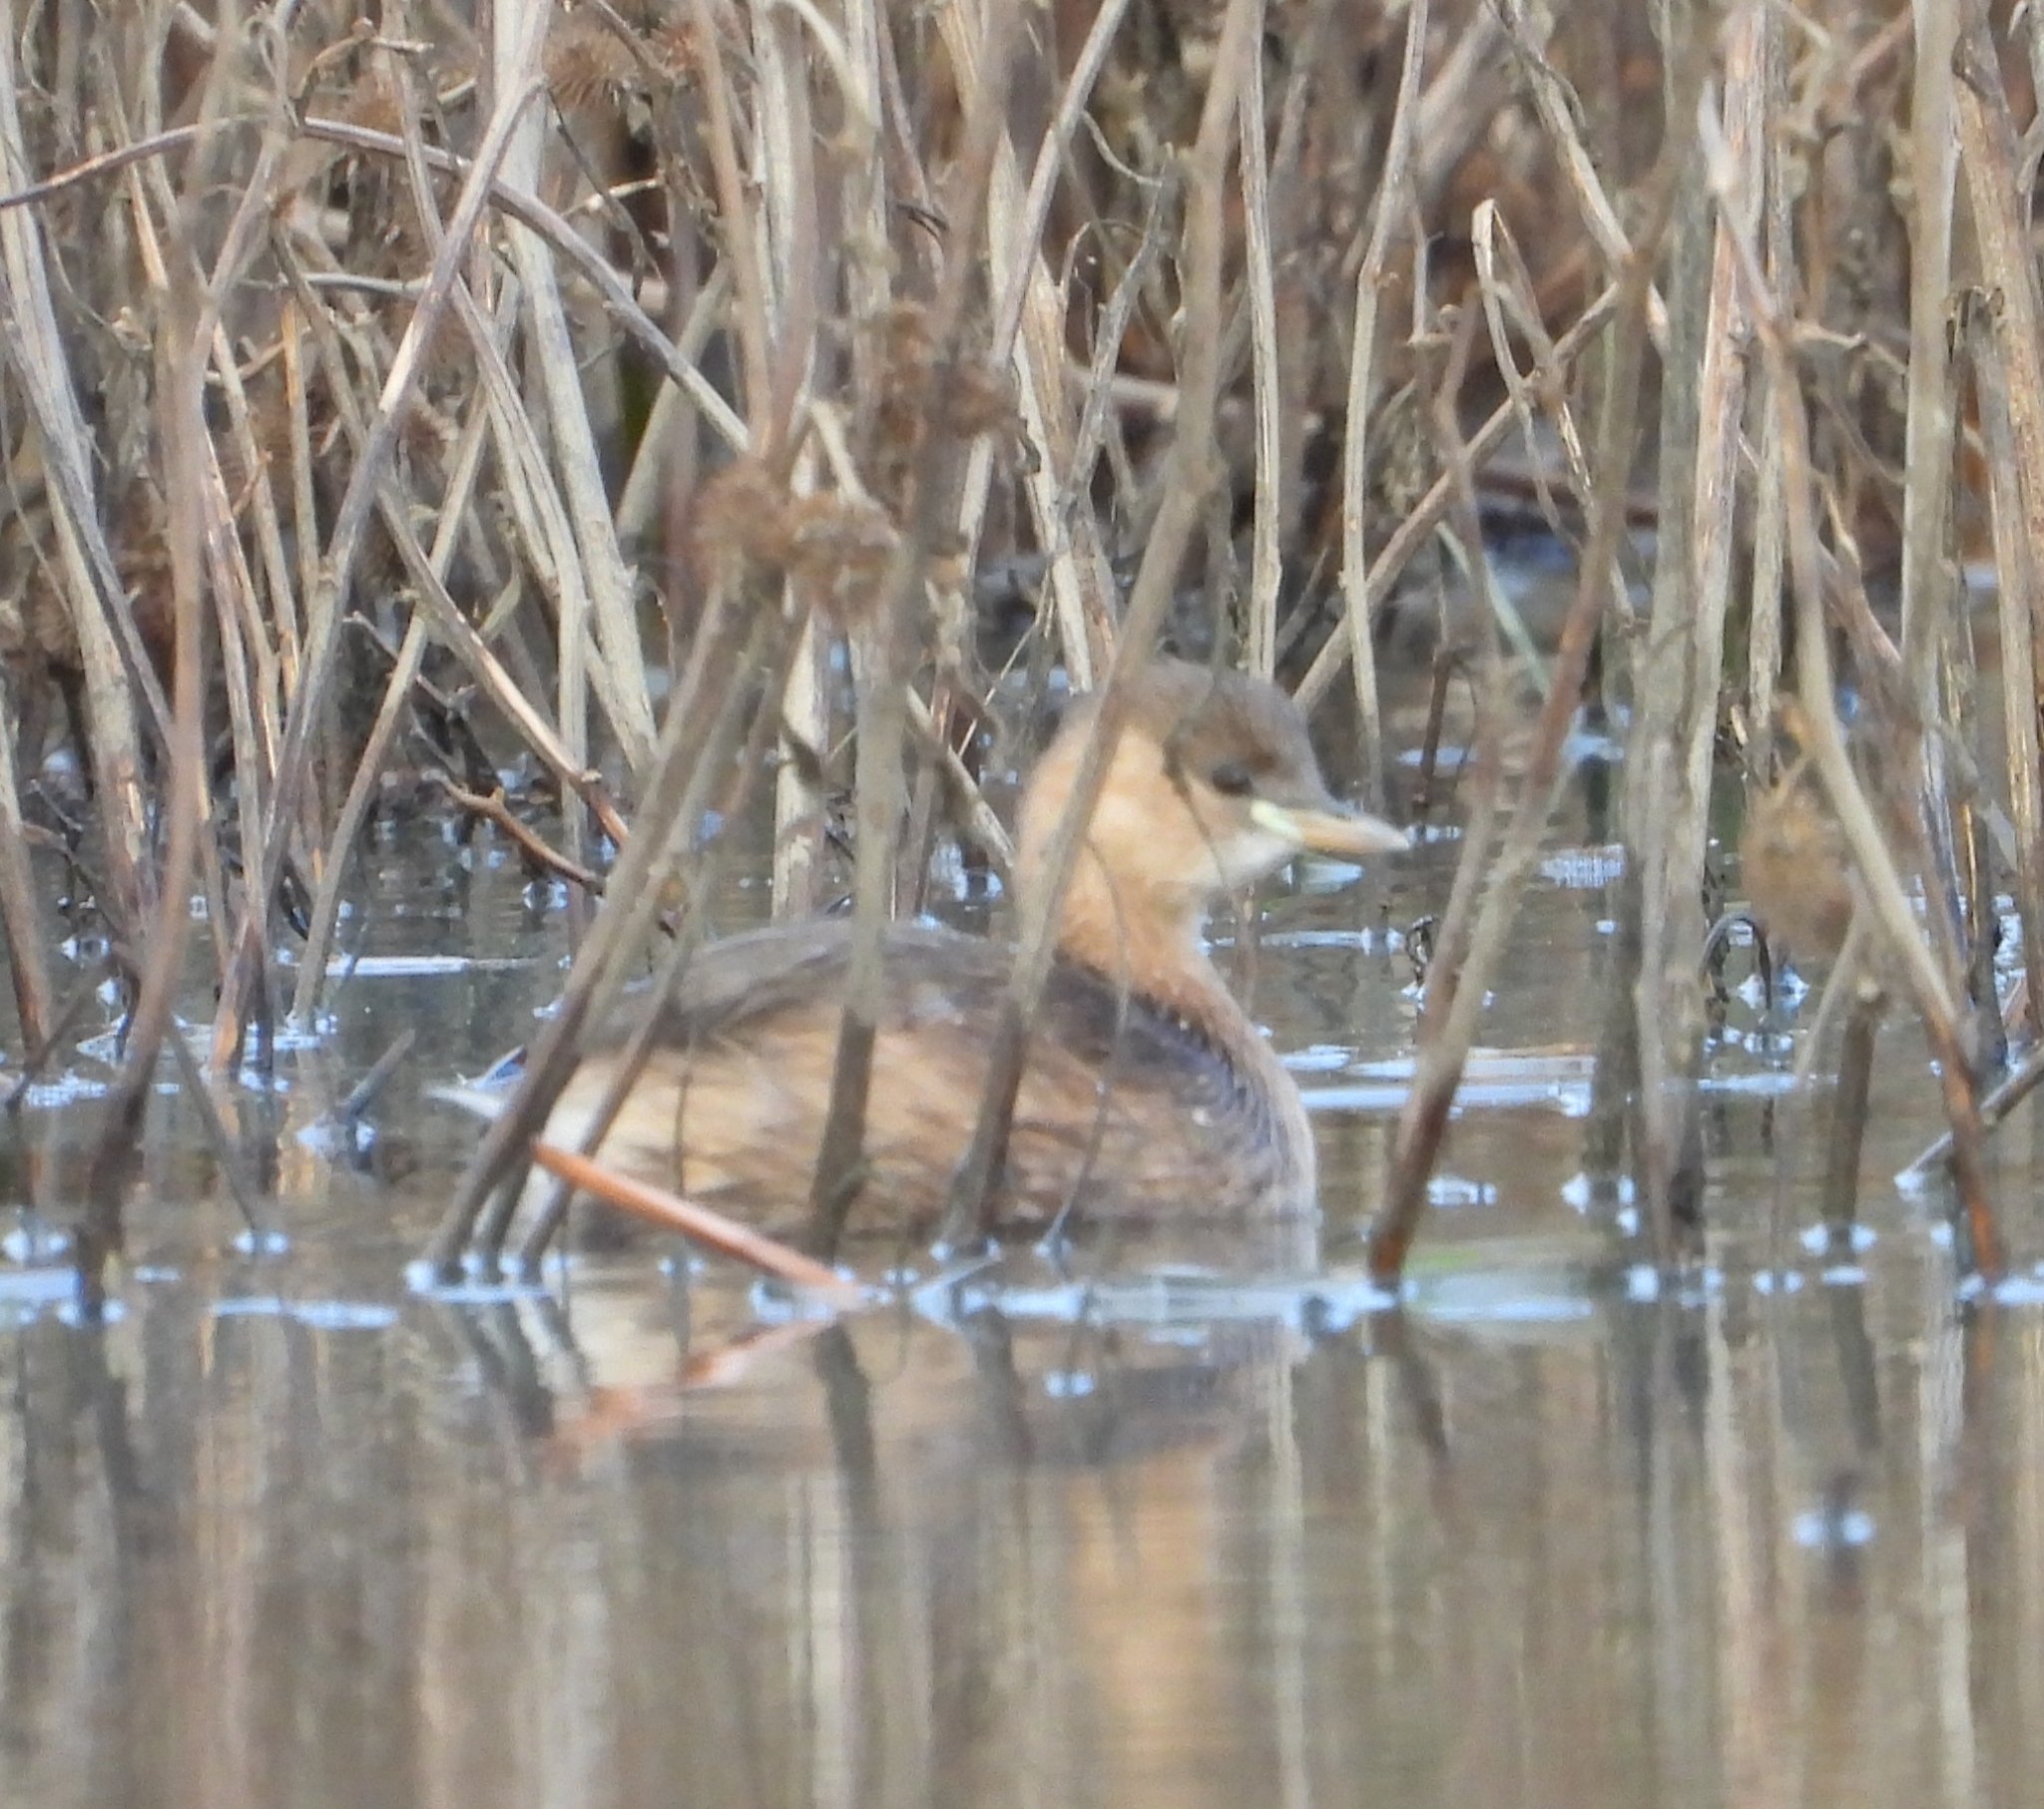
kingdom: Animalia
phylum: Chordata
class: Aves
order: Podicipediformes
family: Podicipedidae
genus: Tachybaptus
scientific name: Tachybaptus ruficollis
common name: Little grebe
